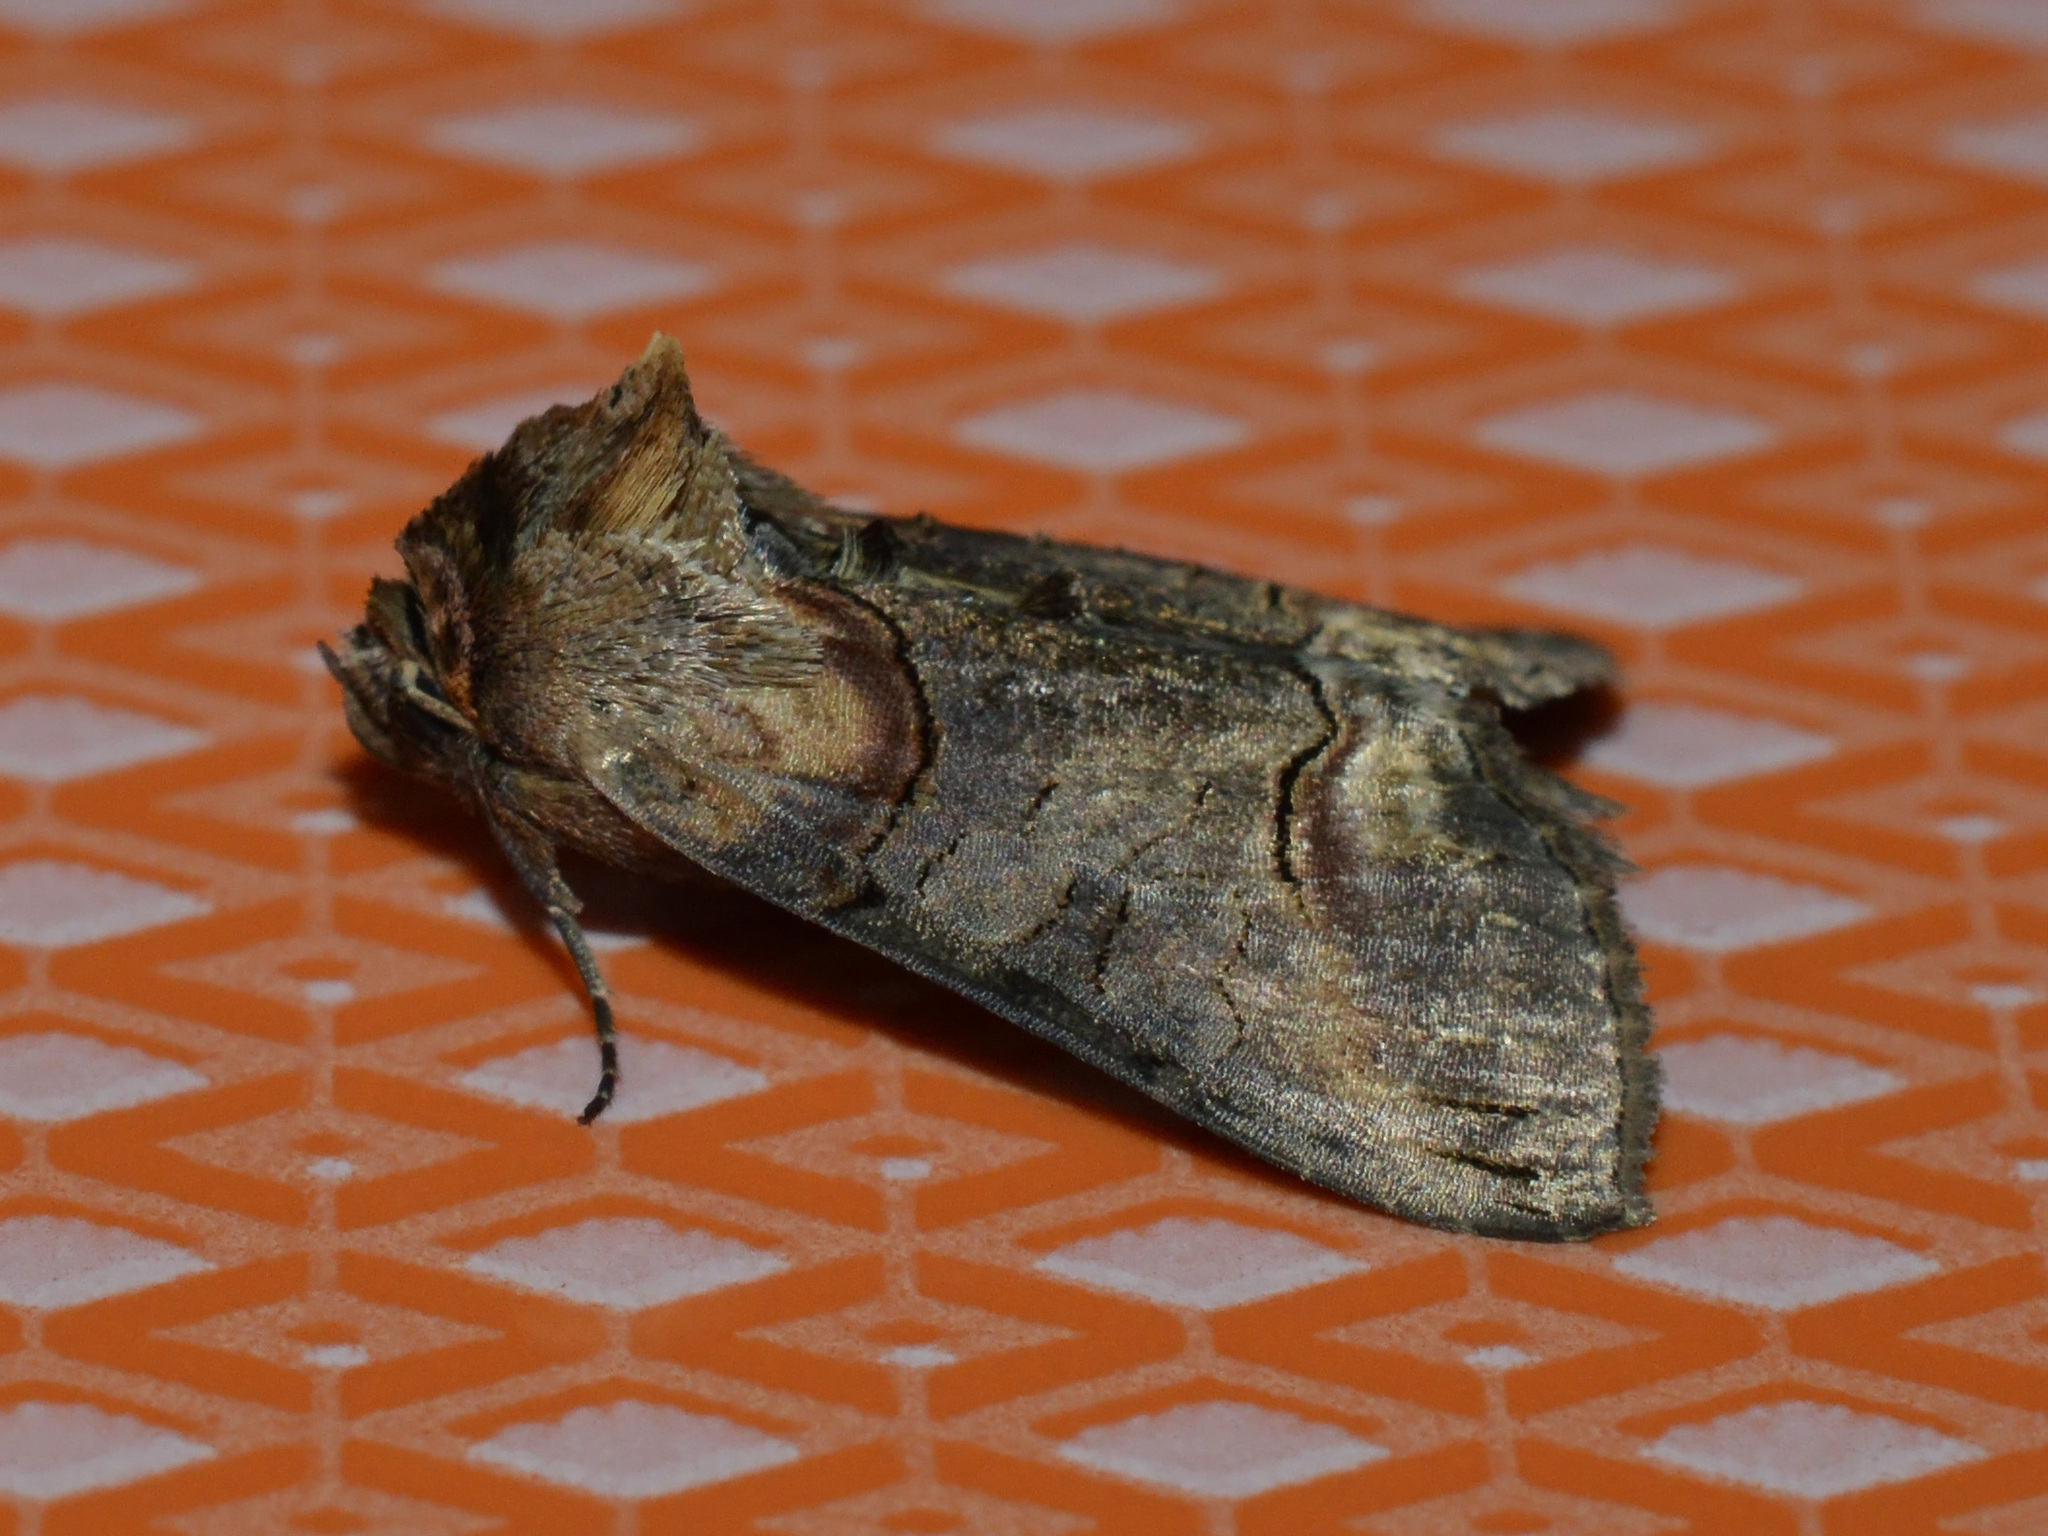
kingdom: Animalia
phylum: Arthropoda
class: Insecta
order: Lepidoptera
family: Noctuidae
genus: Abrostola
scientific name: Abrostola triplasia
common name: Dark spectacle
